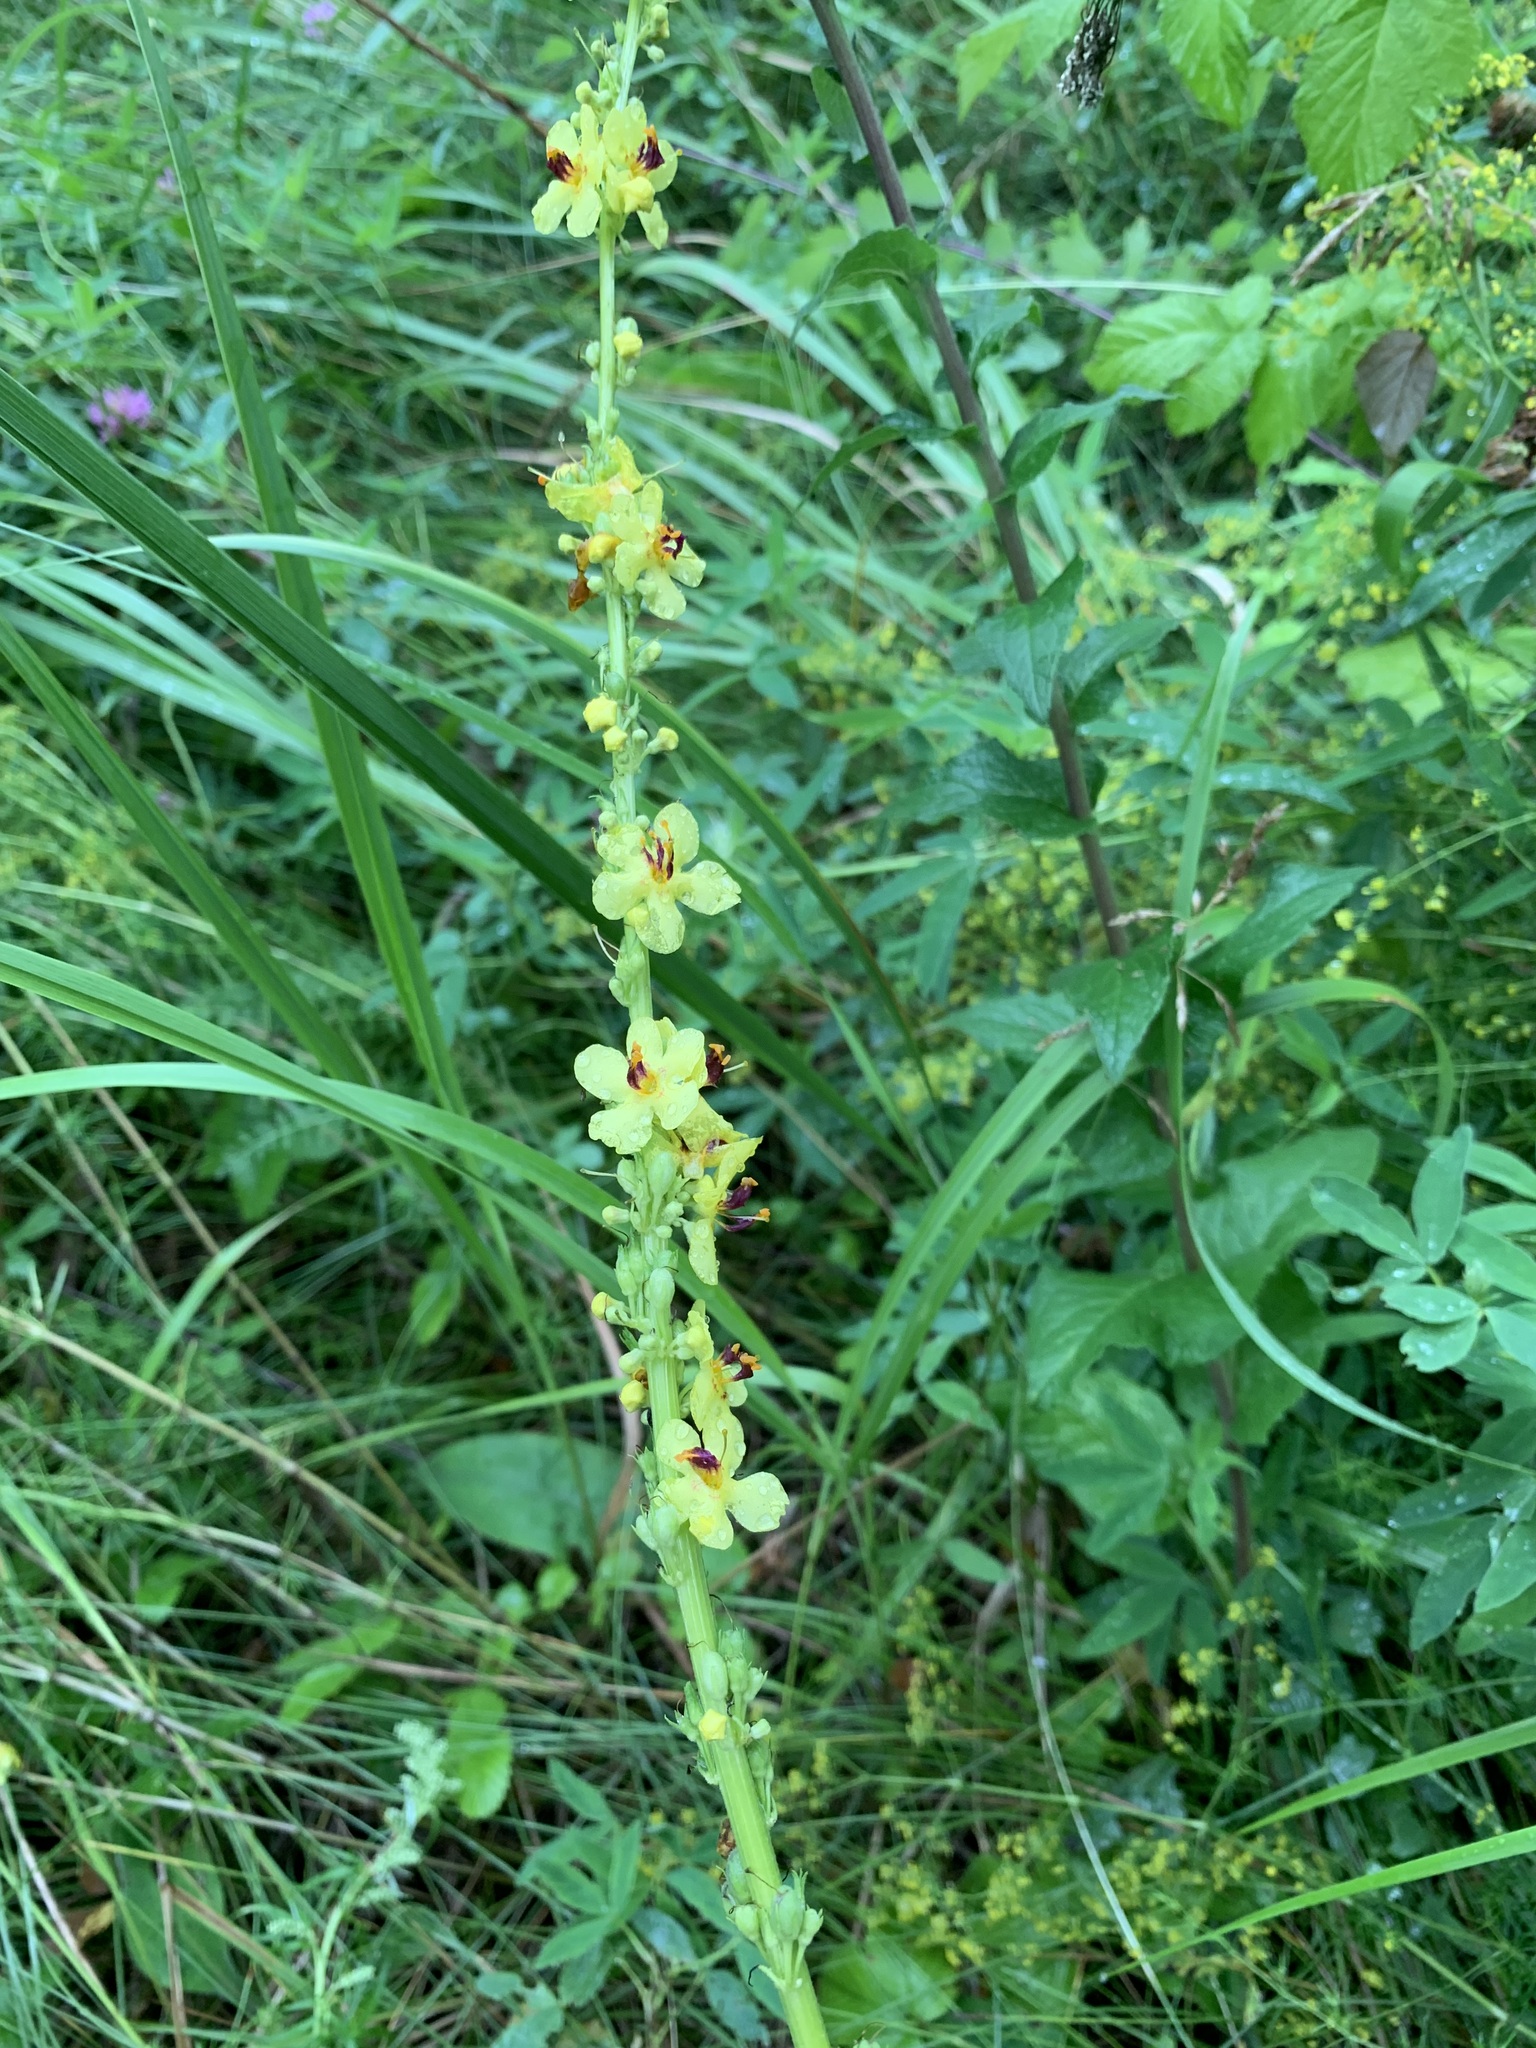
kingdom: Plantae
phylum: Tracheophyta
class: Magnoliopsida
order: Lamiales
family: Scrophulariaceae
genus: Verbascum
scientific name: Verbascum nigrum
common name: Dark mullein
